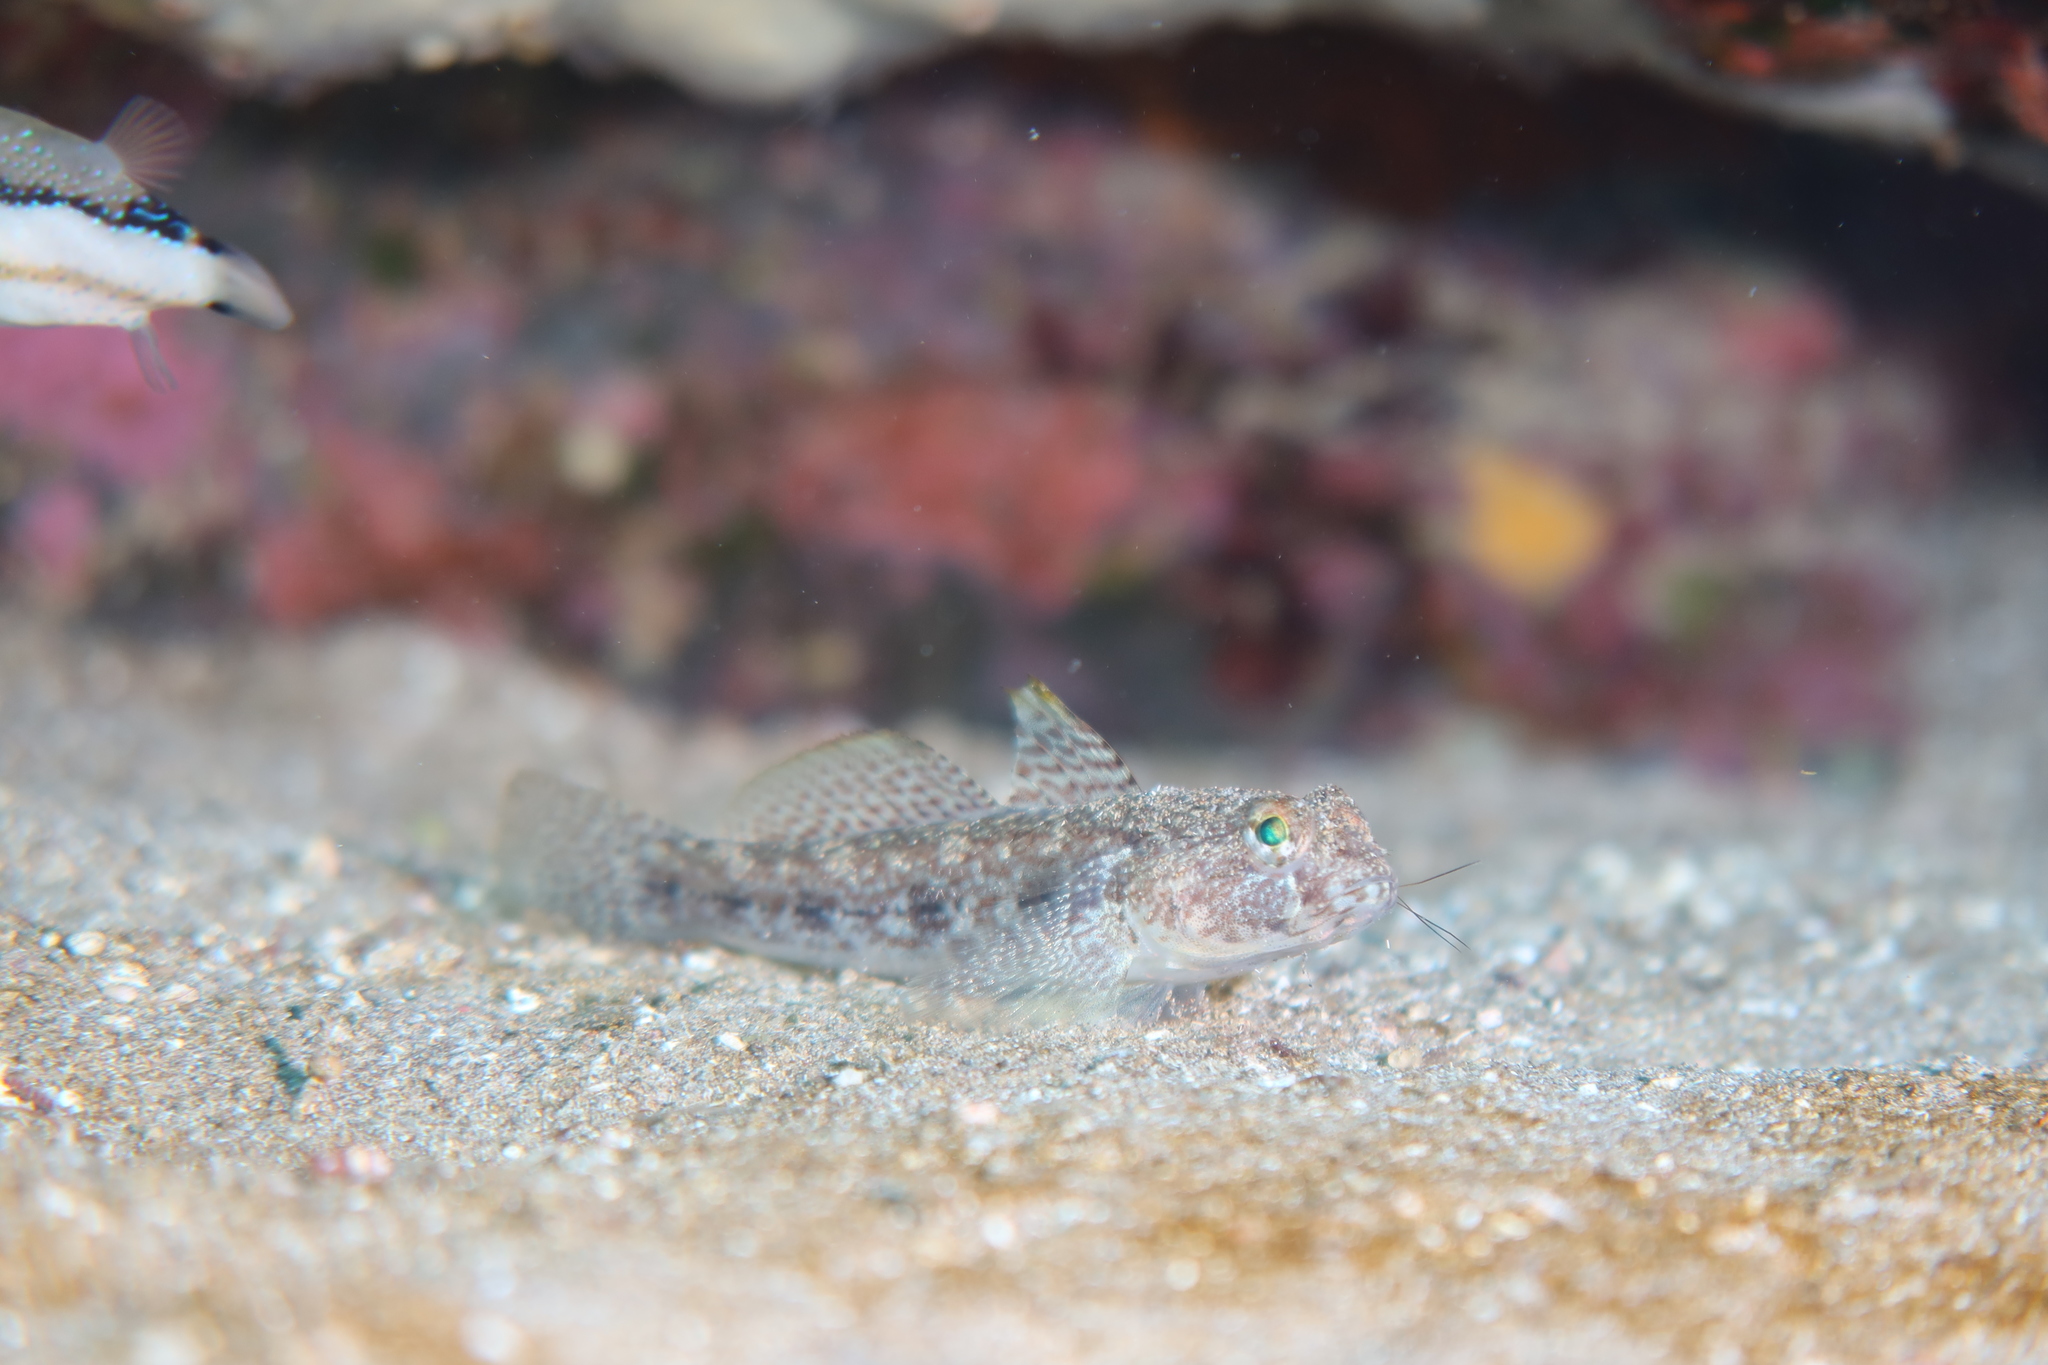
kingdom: Animalia
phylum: Chordata
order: Perciformes
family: Gobiidae
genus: Gobius
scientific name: Gobius niger
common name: Black goby
